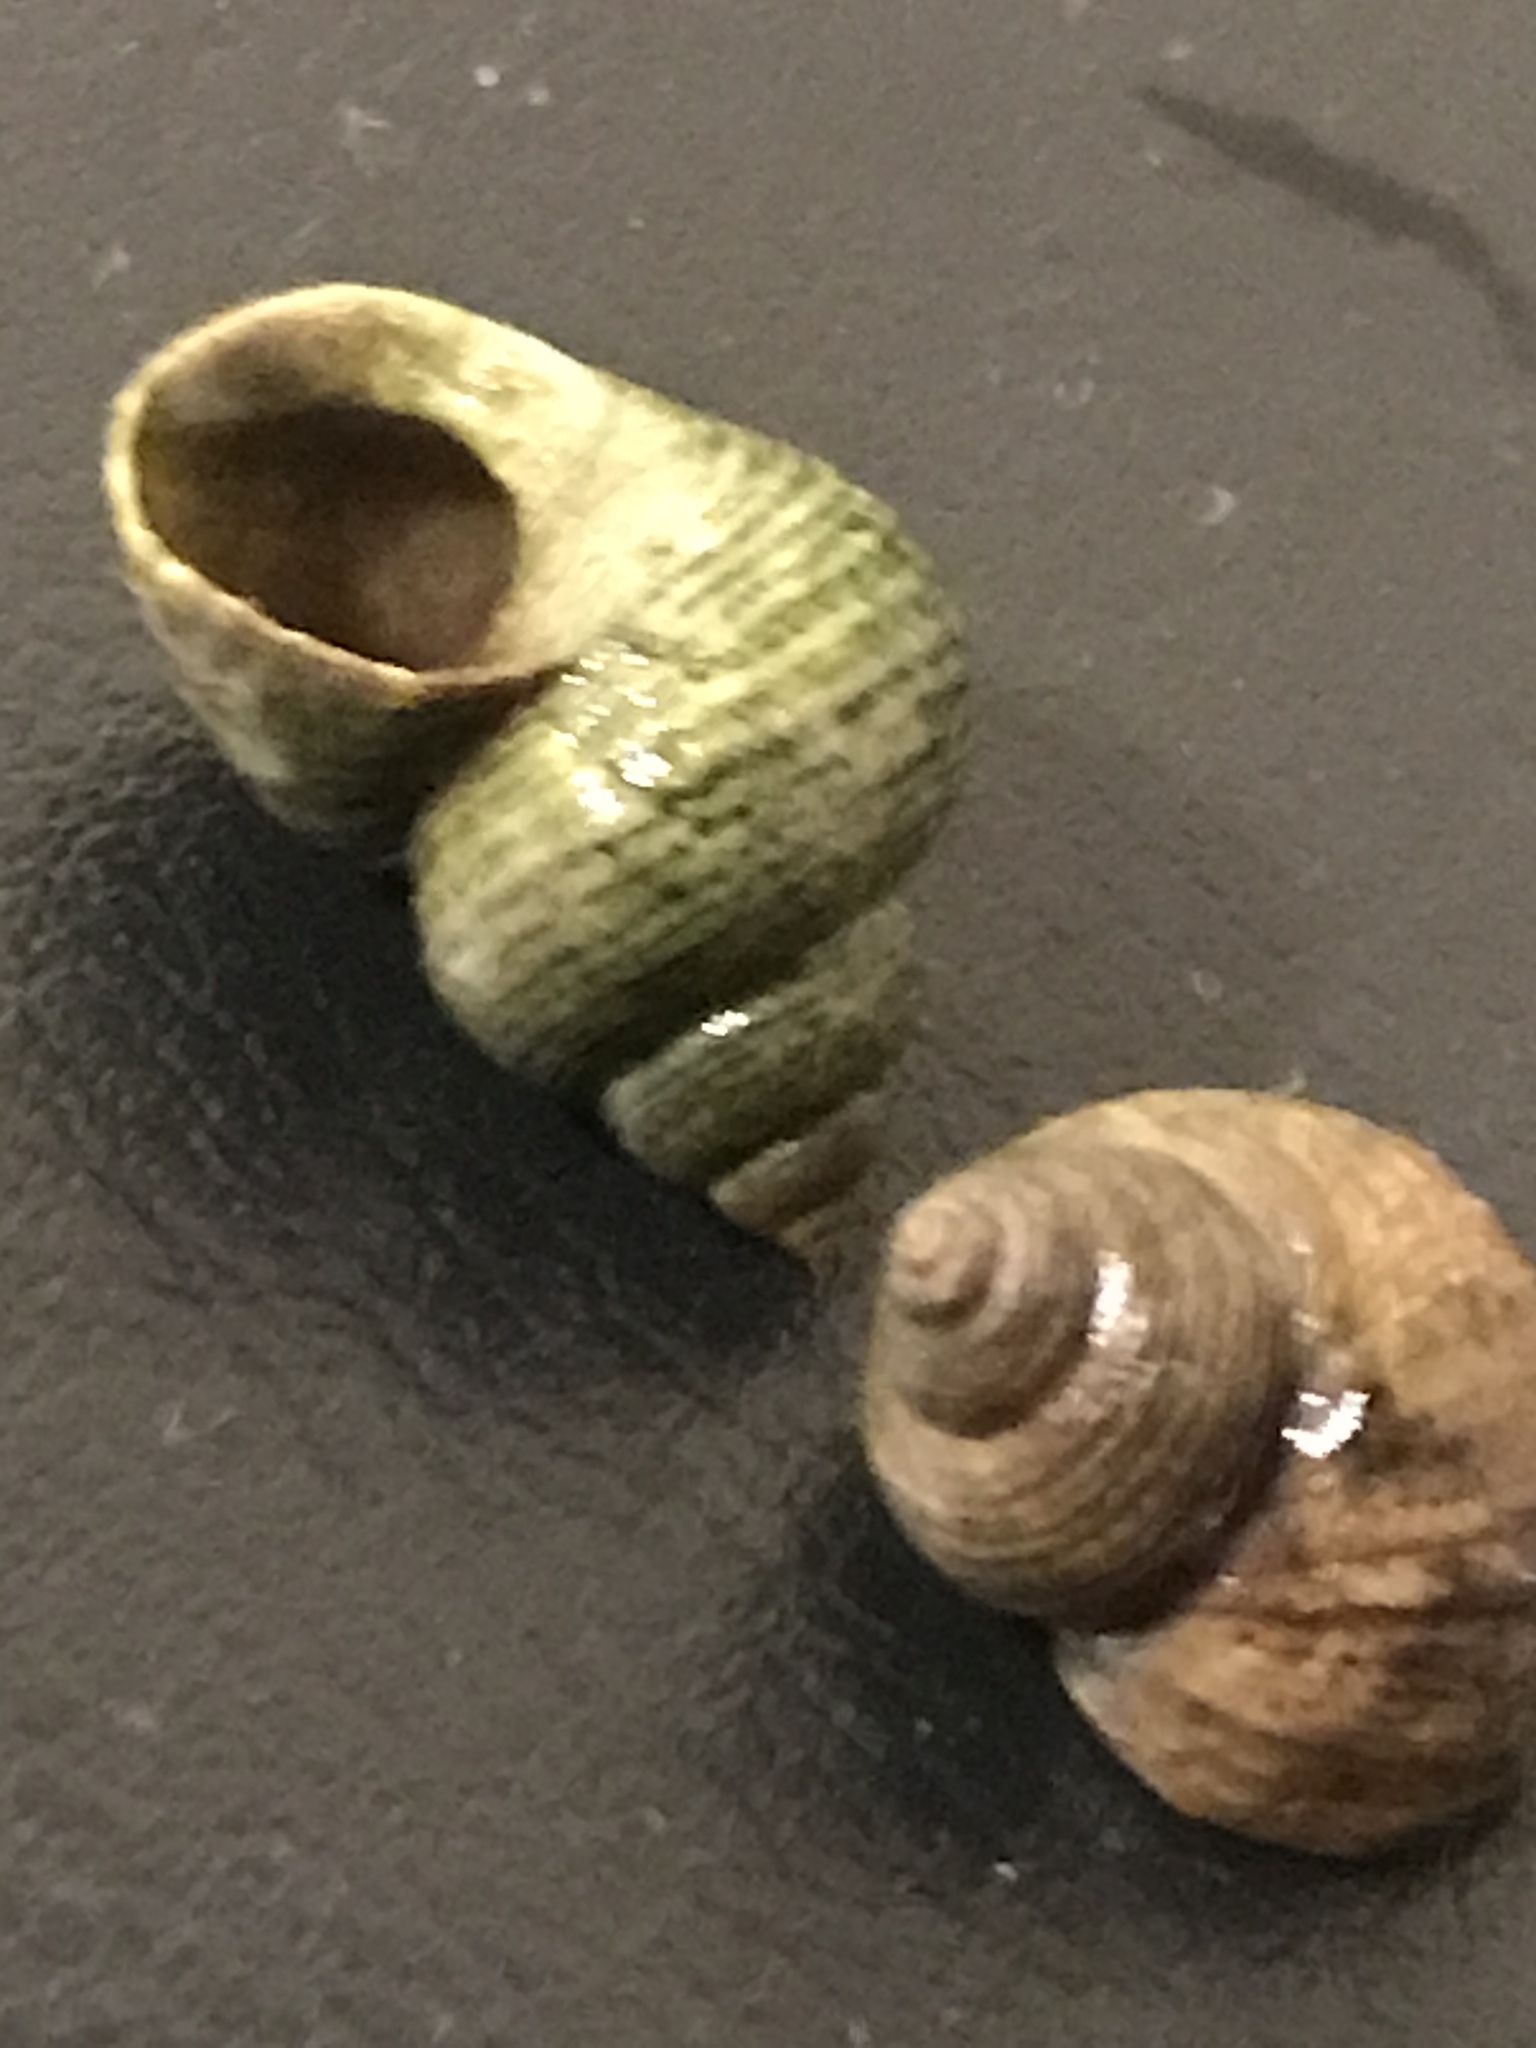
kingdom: Animalia
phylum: Mollusca
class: Gastropoda
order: Littorinimorpha
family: Littorinidae
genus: Littorina
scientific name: Littorina saxatilis
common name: Black-lined periwinkle
